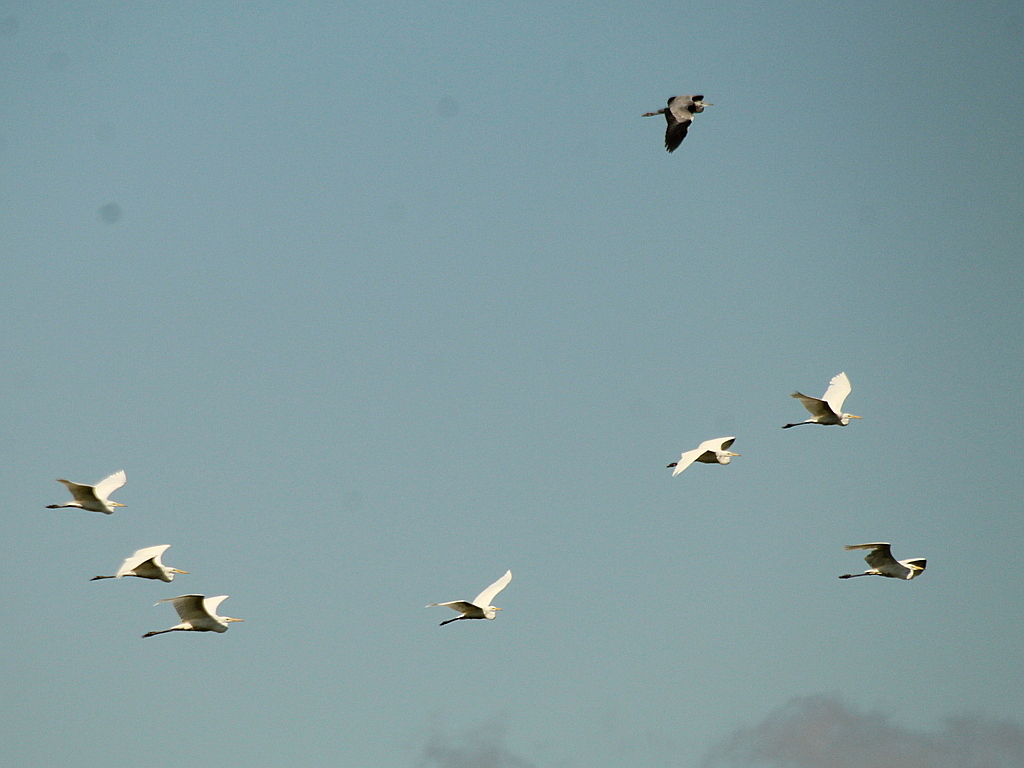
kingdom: Animalia
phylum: Chordata
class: Aves
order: Pelecaniformes
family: Ardeidae
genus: Ardea
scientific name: Ardea alba
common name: Great egret
